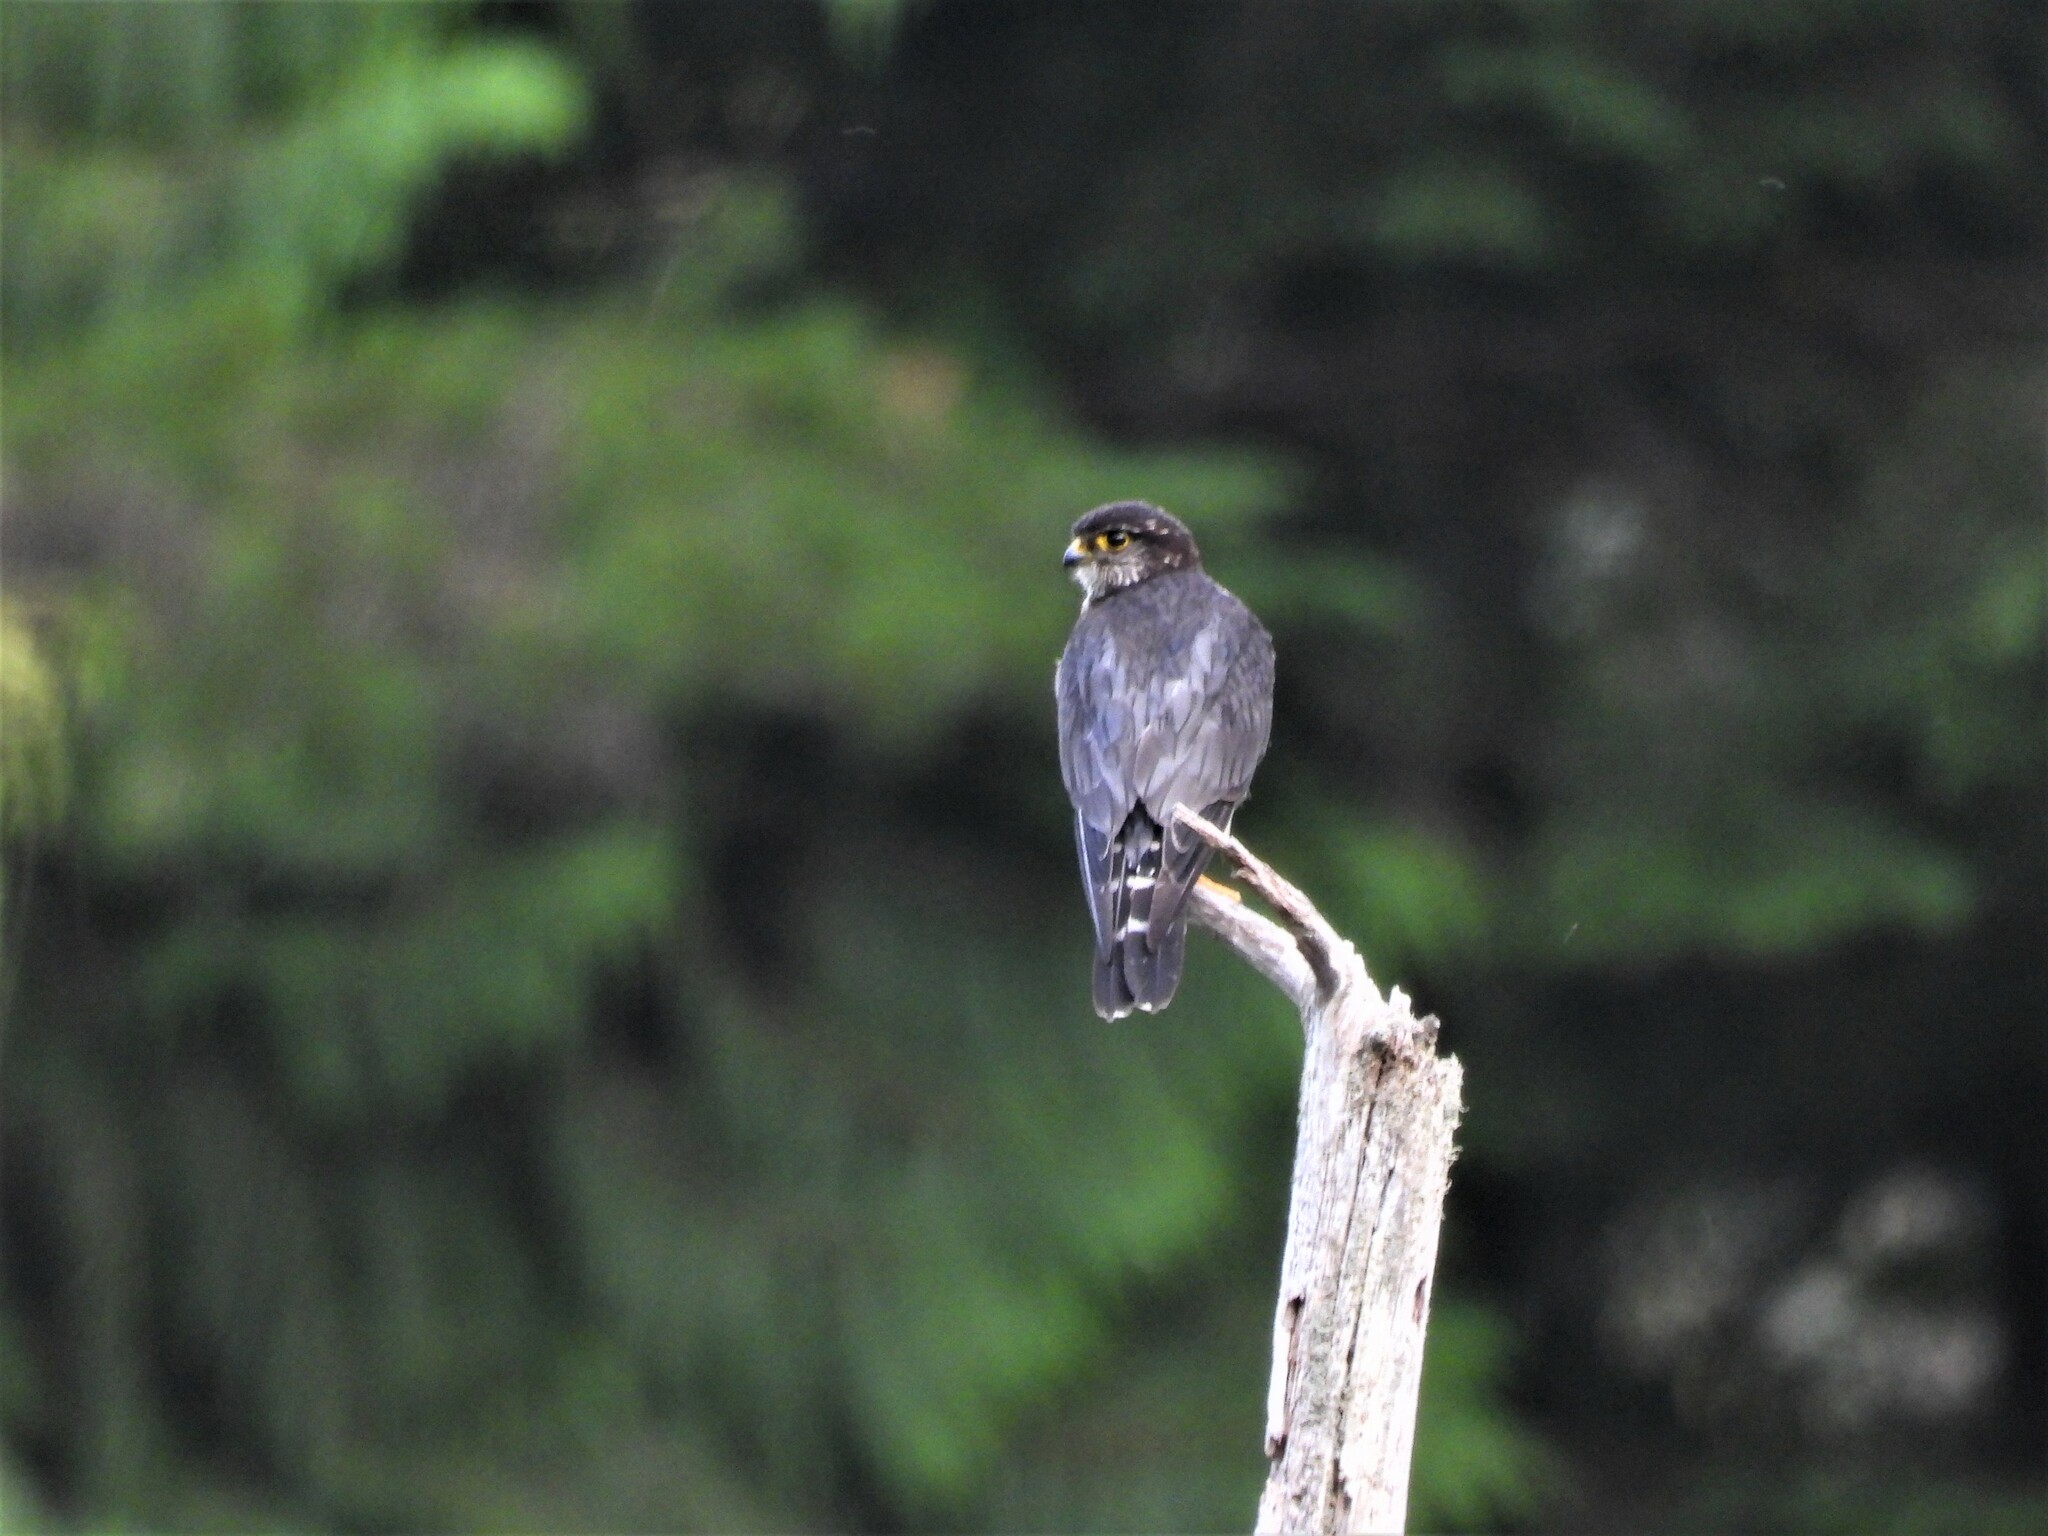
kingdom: Animalia
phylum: Chordata
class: Aves
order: Falconiformes
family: Falconidae
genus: Falco
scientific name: Falco columbarius
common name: Merlin
